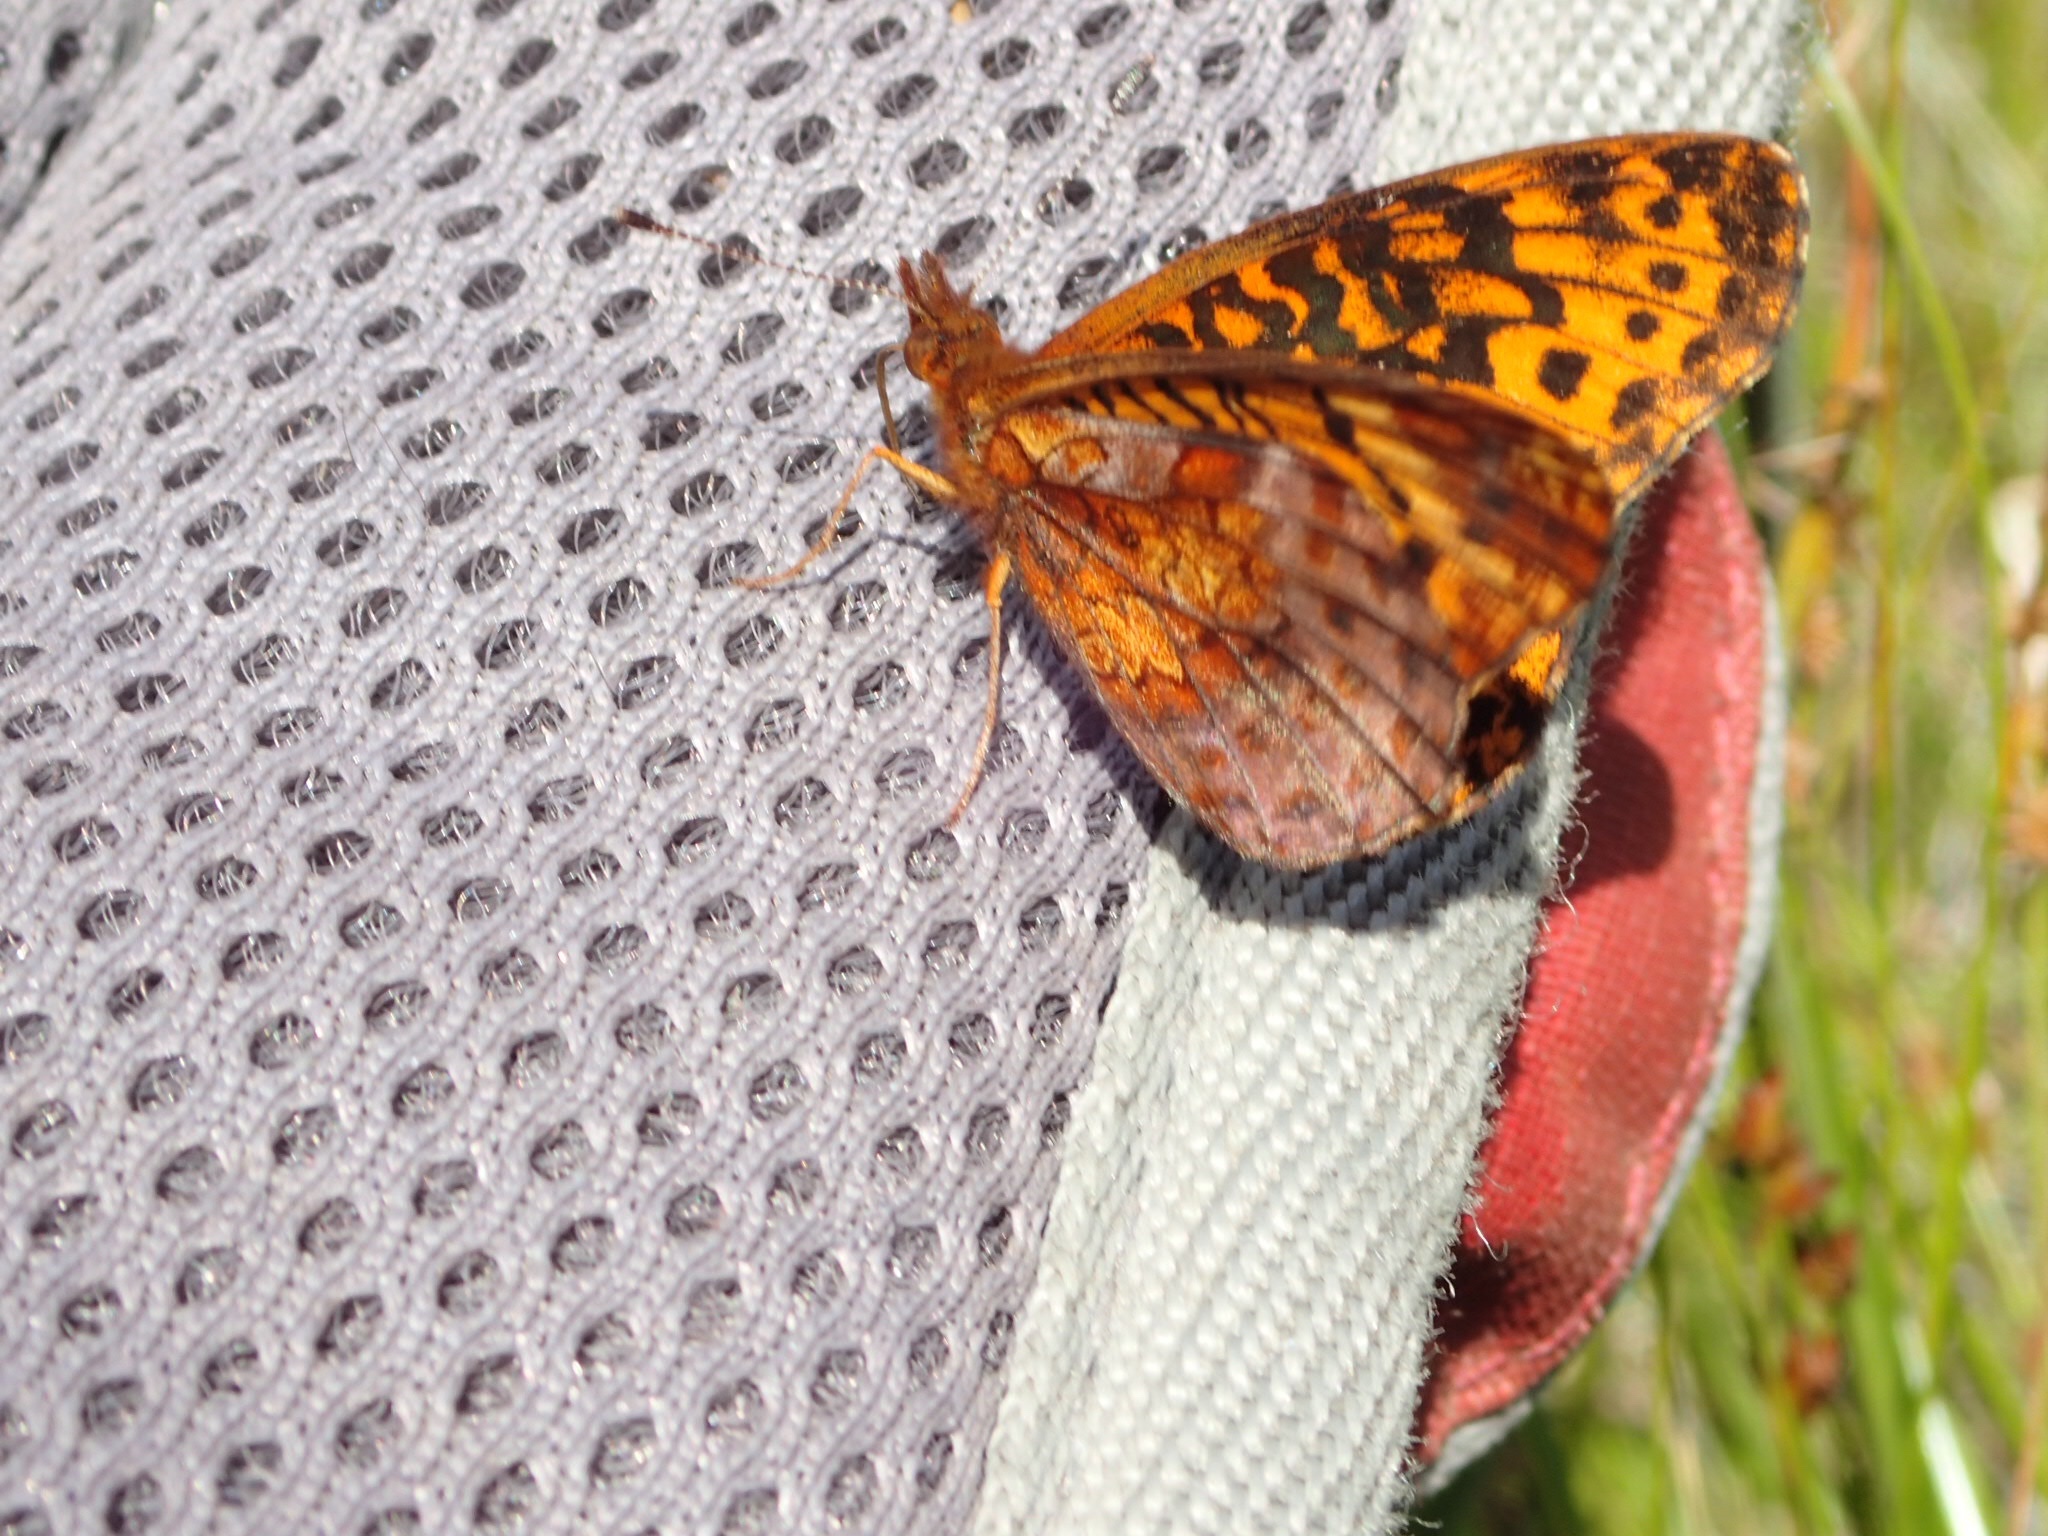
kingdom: Animalia
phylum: Arthropoda
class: Insecta
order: Lepidoptera
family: Nymphalidae
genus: Clossiana
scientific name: Clossiana toddi
